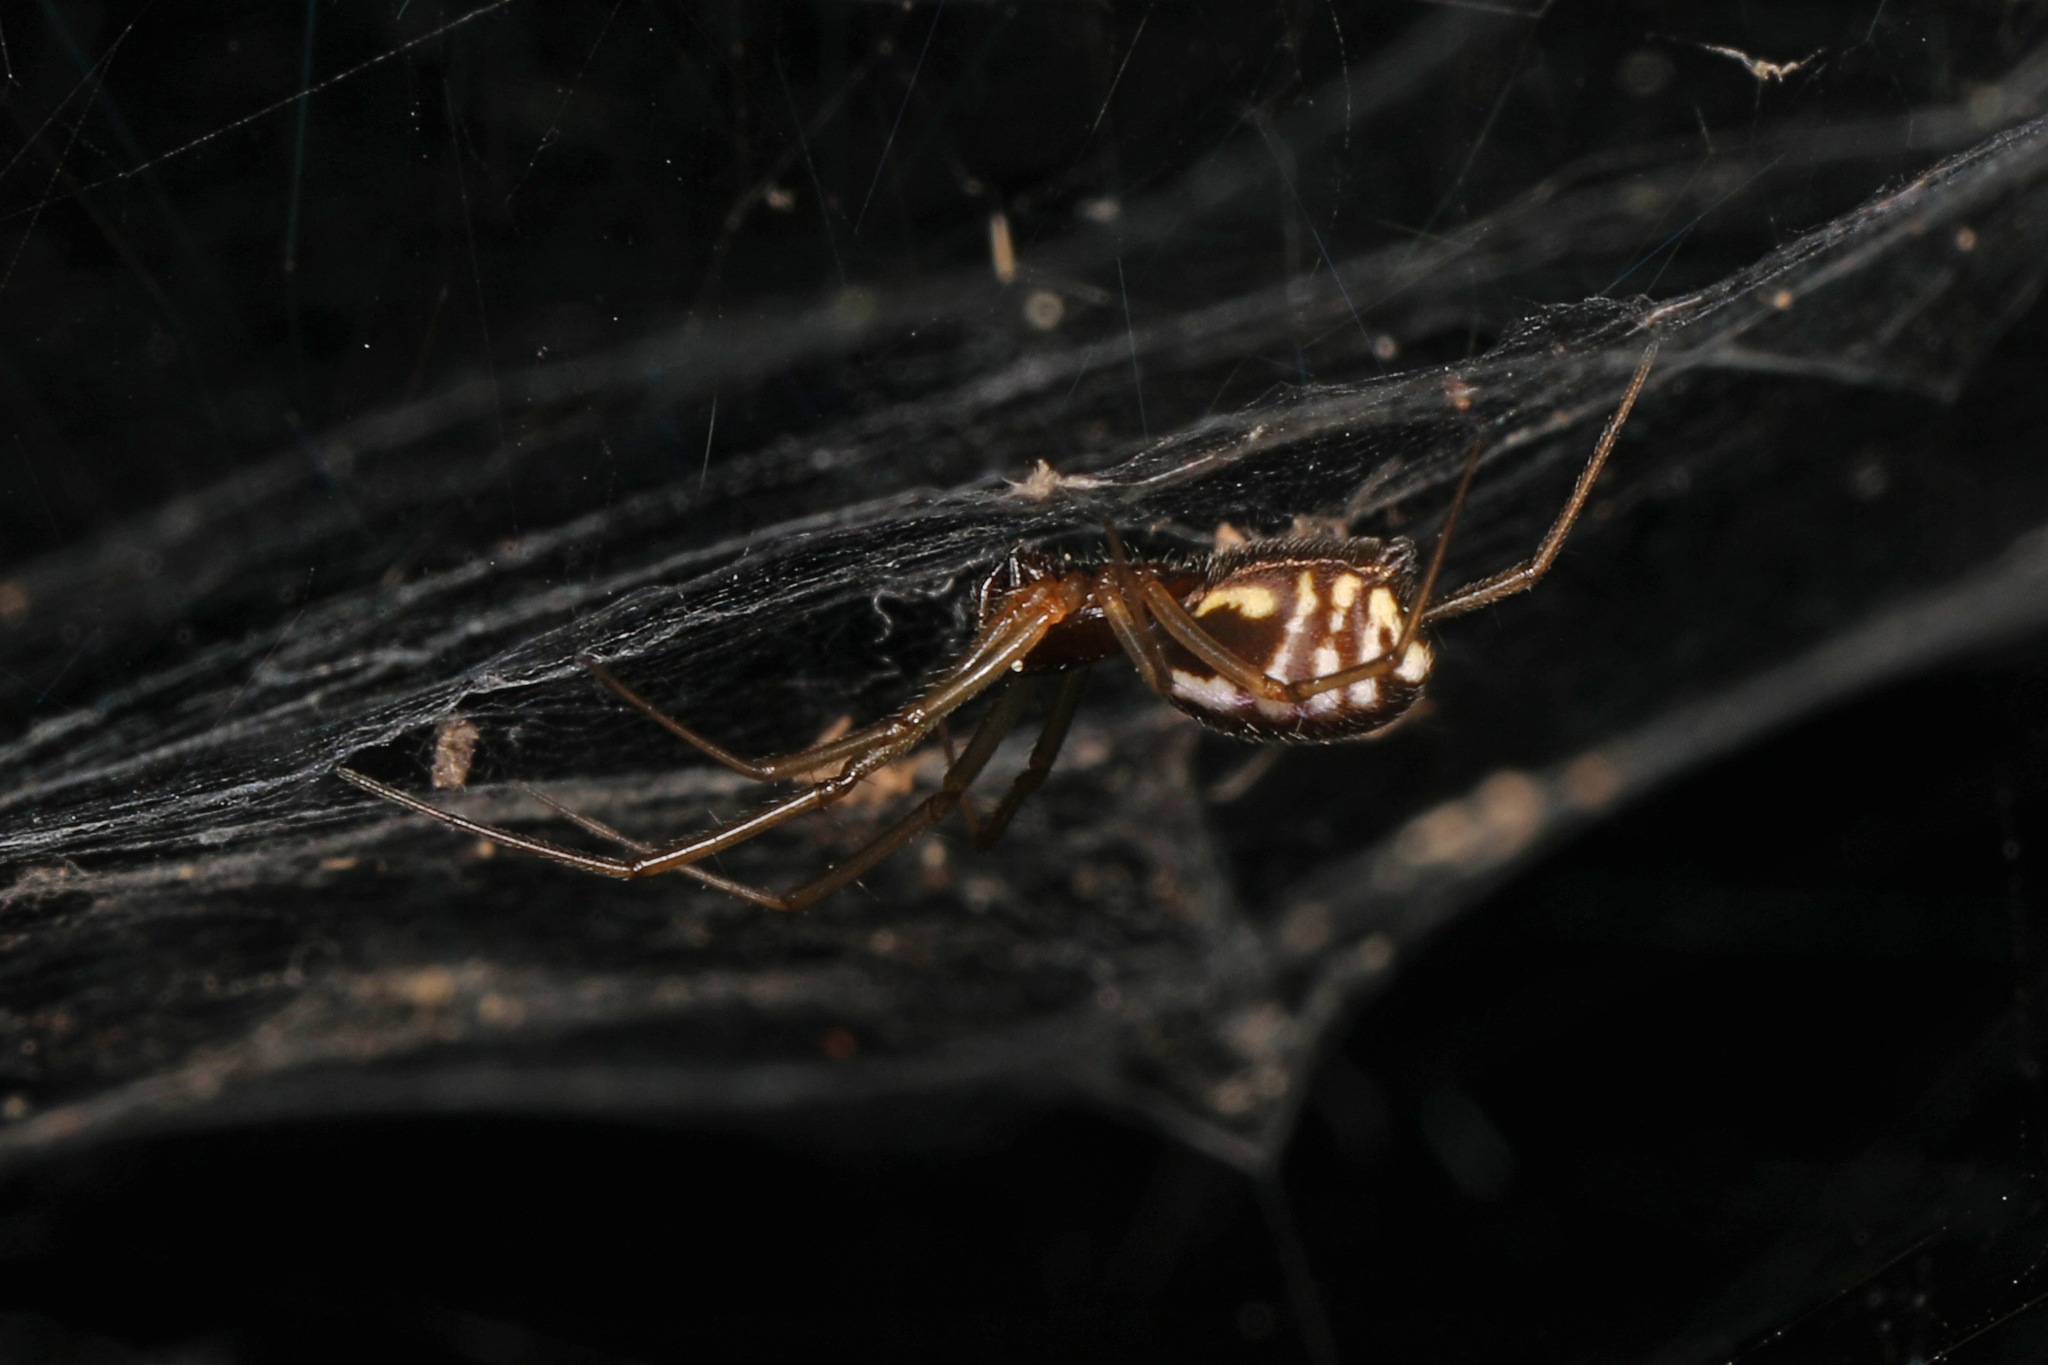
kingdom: Animalia
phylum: Arthropoda
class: Arachnida
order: Araneae
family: Linyphiidae
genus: Frontinella
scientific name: Frontinella pyramitela
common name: Bowl-and-doily spider
